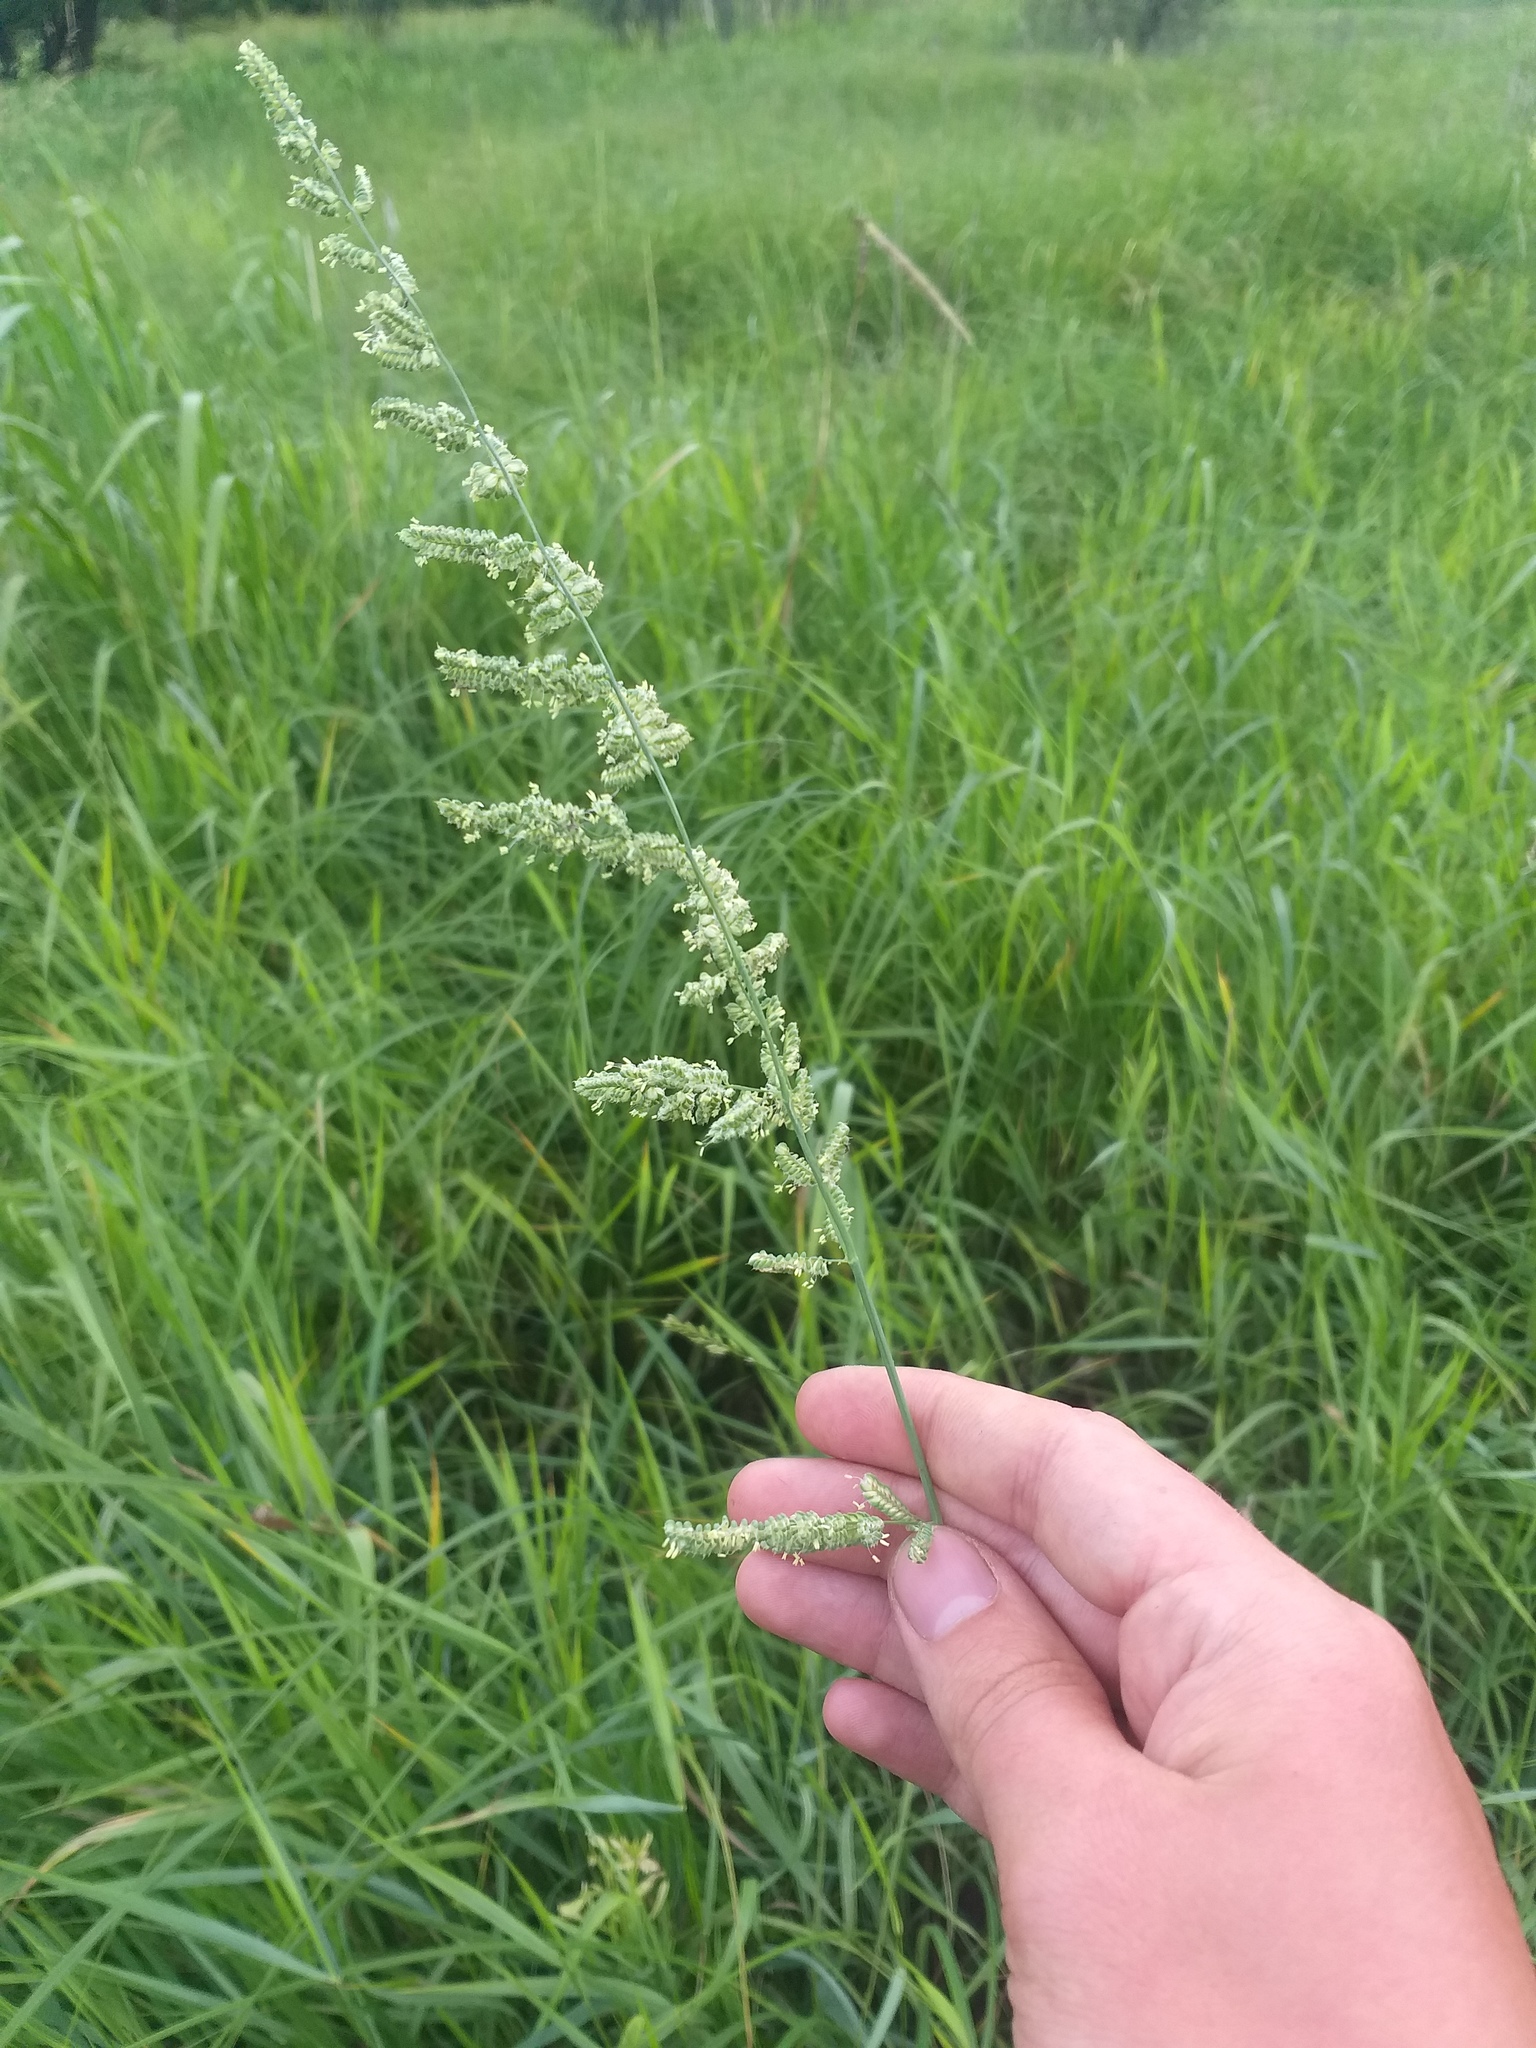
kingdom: Plantae
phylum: Tracheophyta
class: Liliopsida
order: Poales
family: Poaceae
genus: Beckmannia
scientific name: Beckmannia eruciformis
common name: European slough-grass
